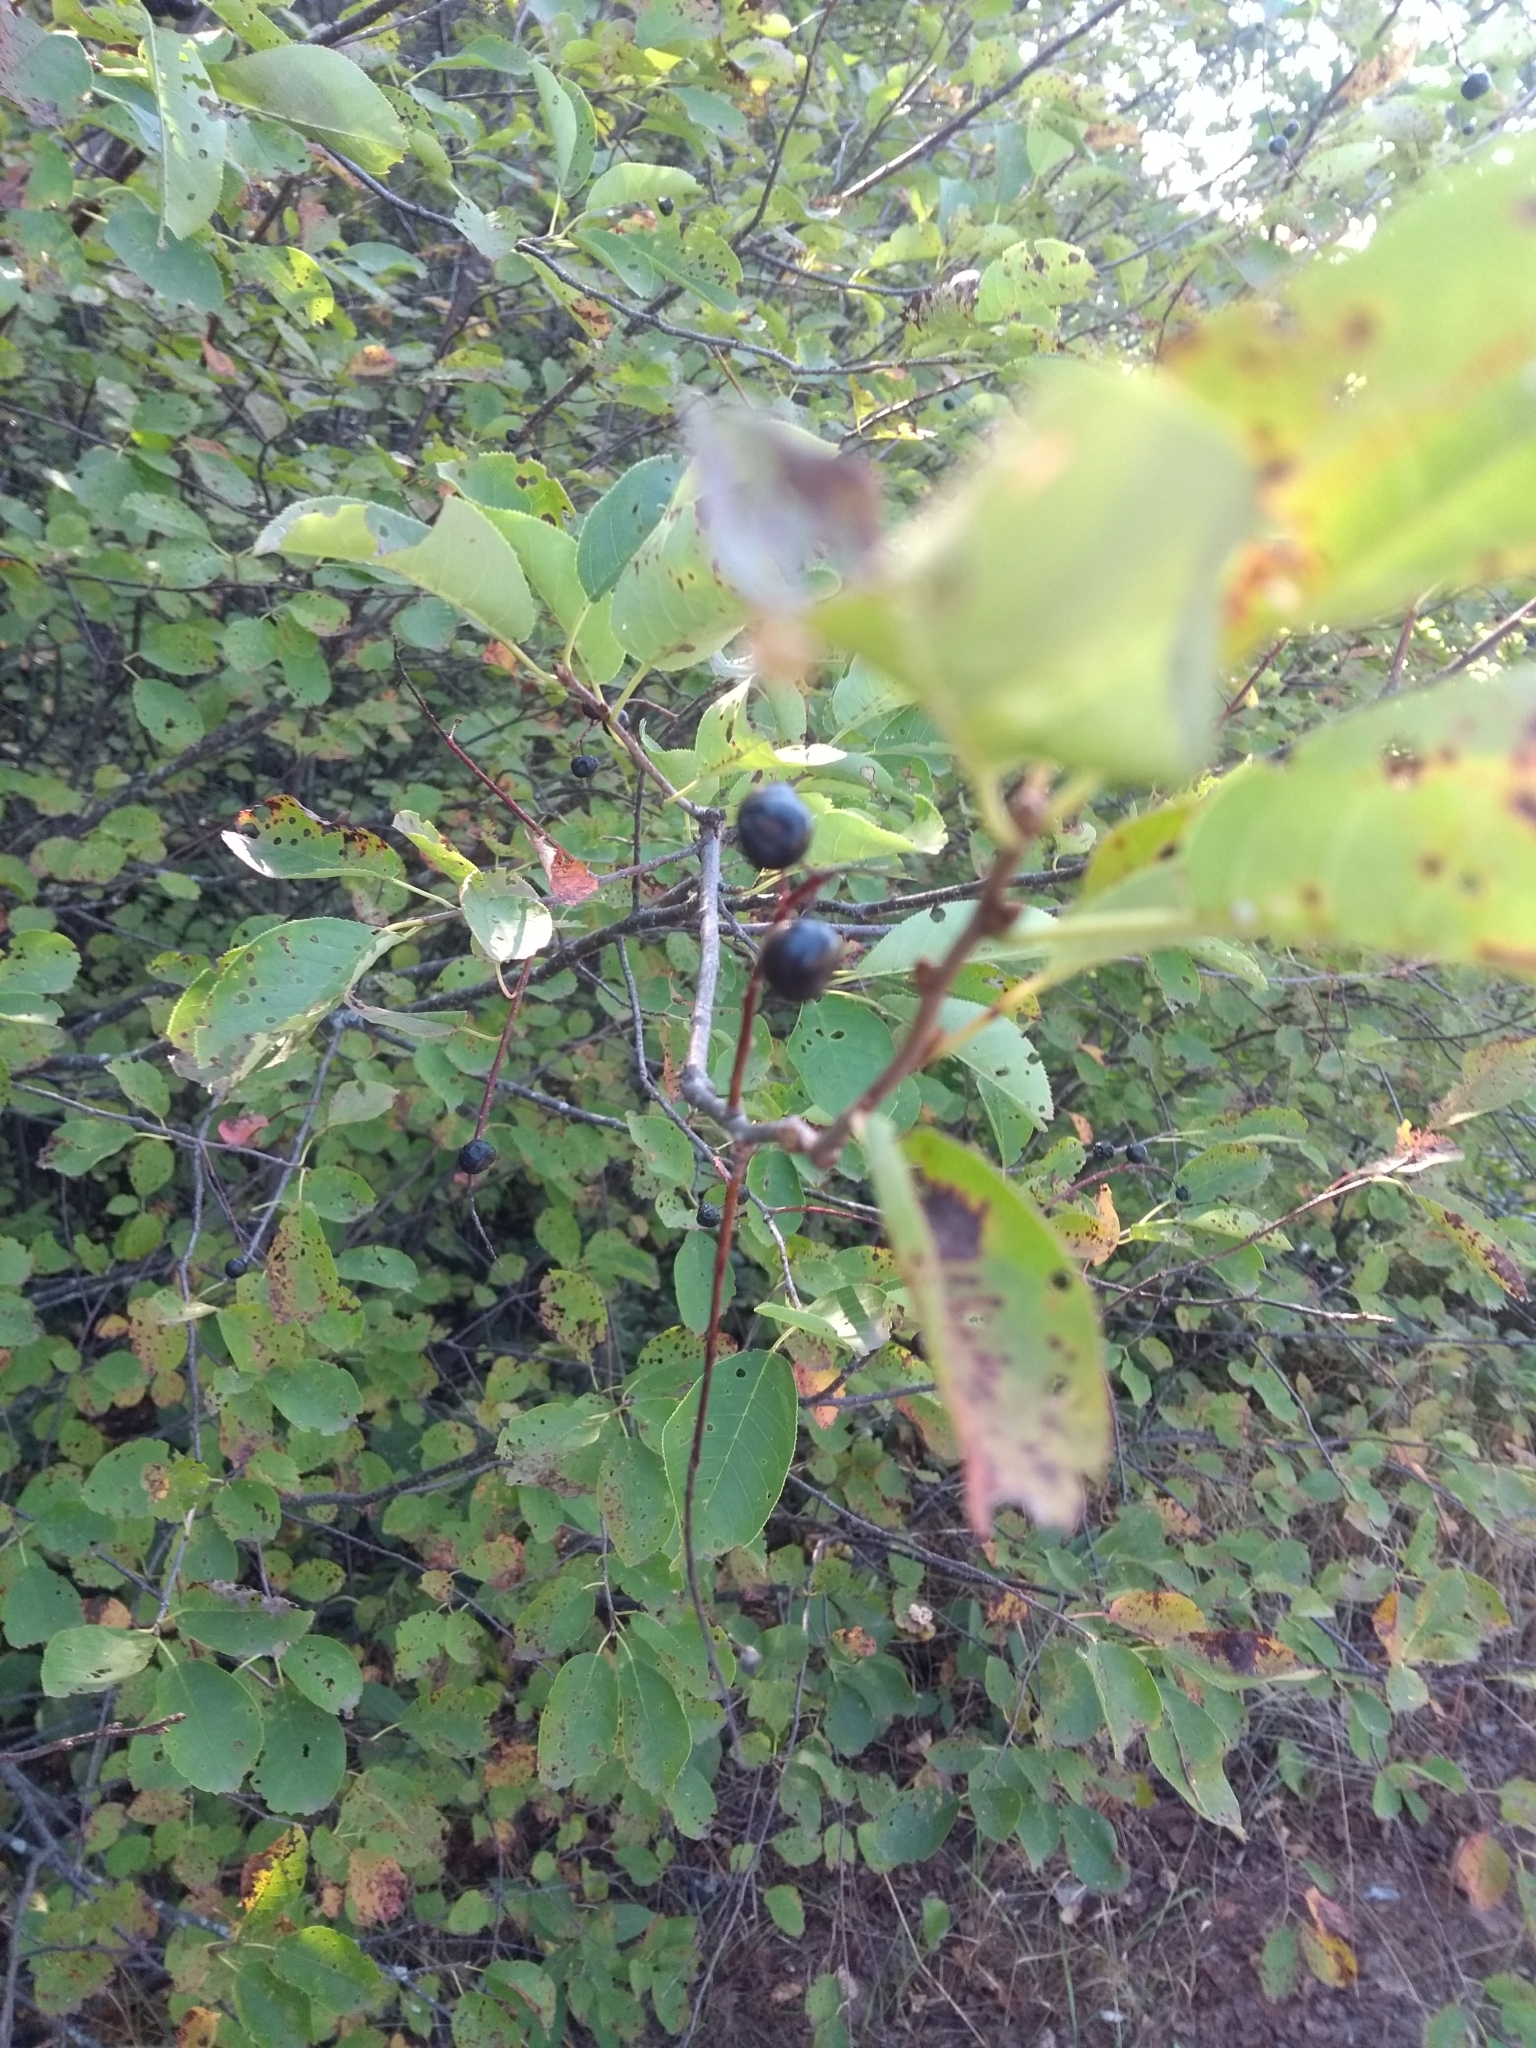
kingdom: Plantae
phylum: Tracheophyta
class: Magnoliopsida
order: Rosales
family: Rosaceae
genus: Prunus
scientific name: Prunus virginiana
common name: Chokecherry
